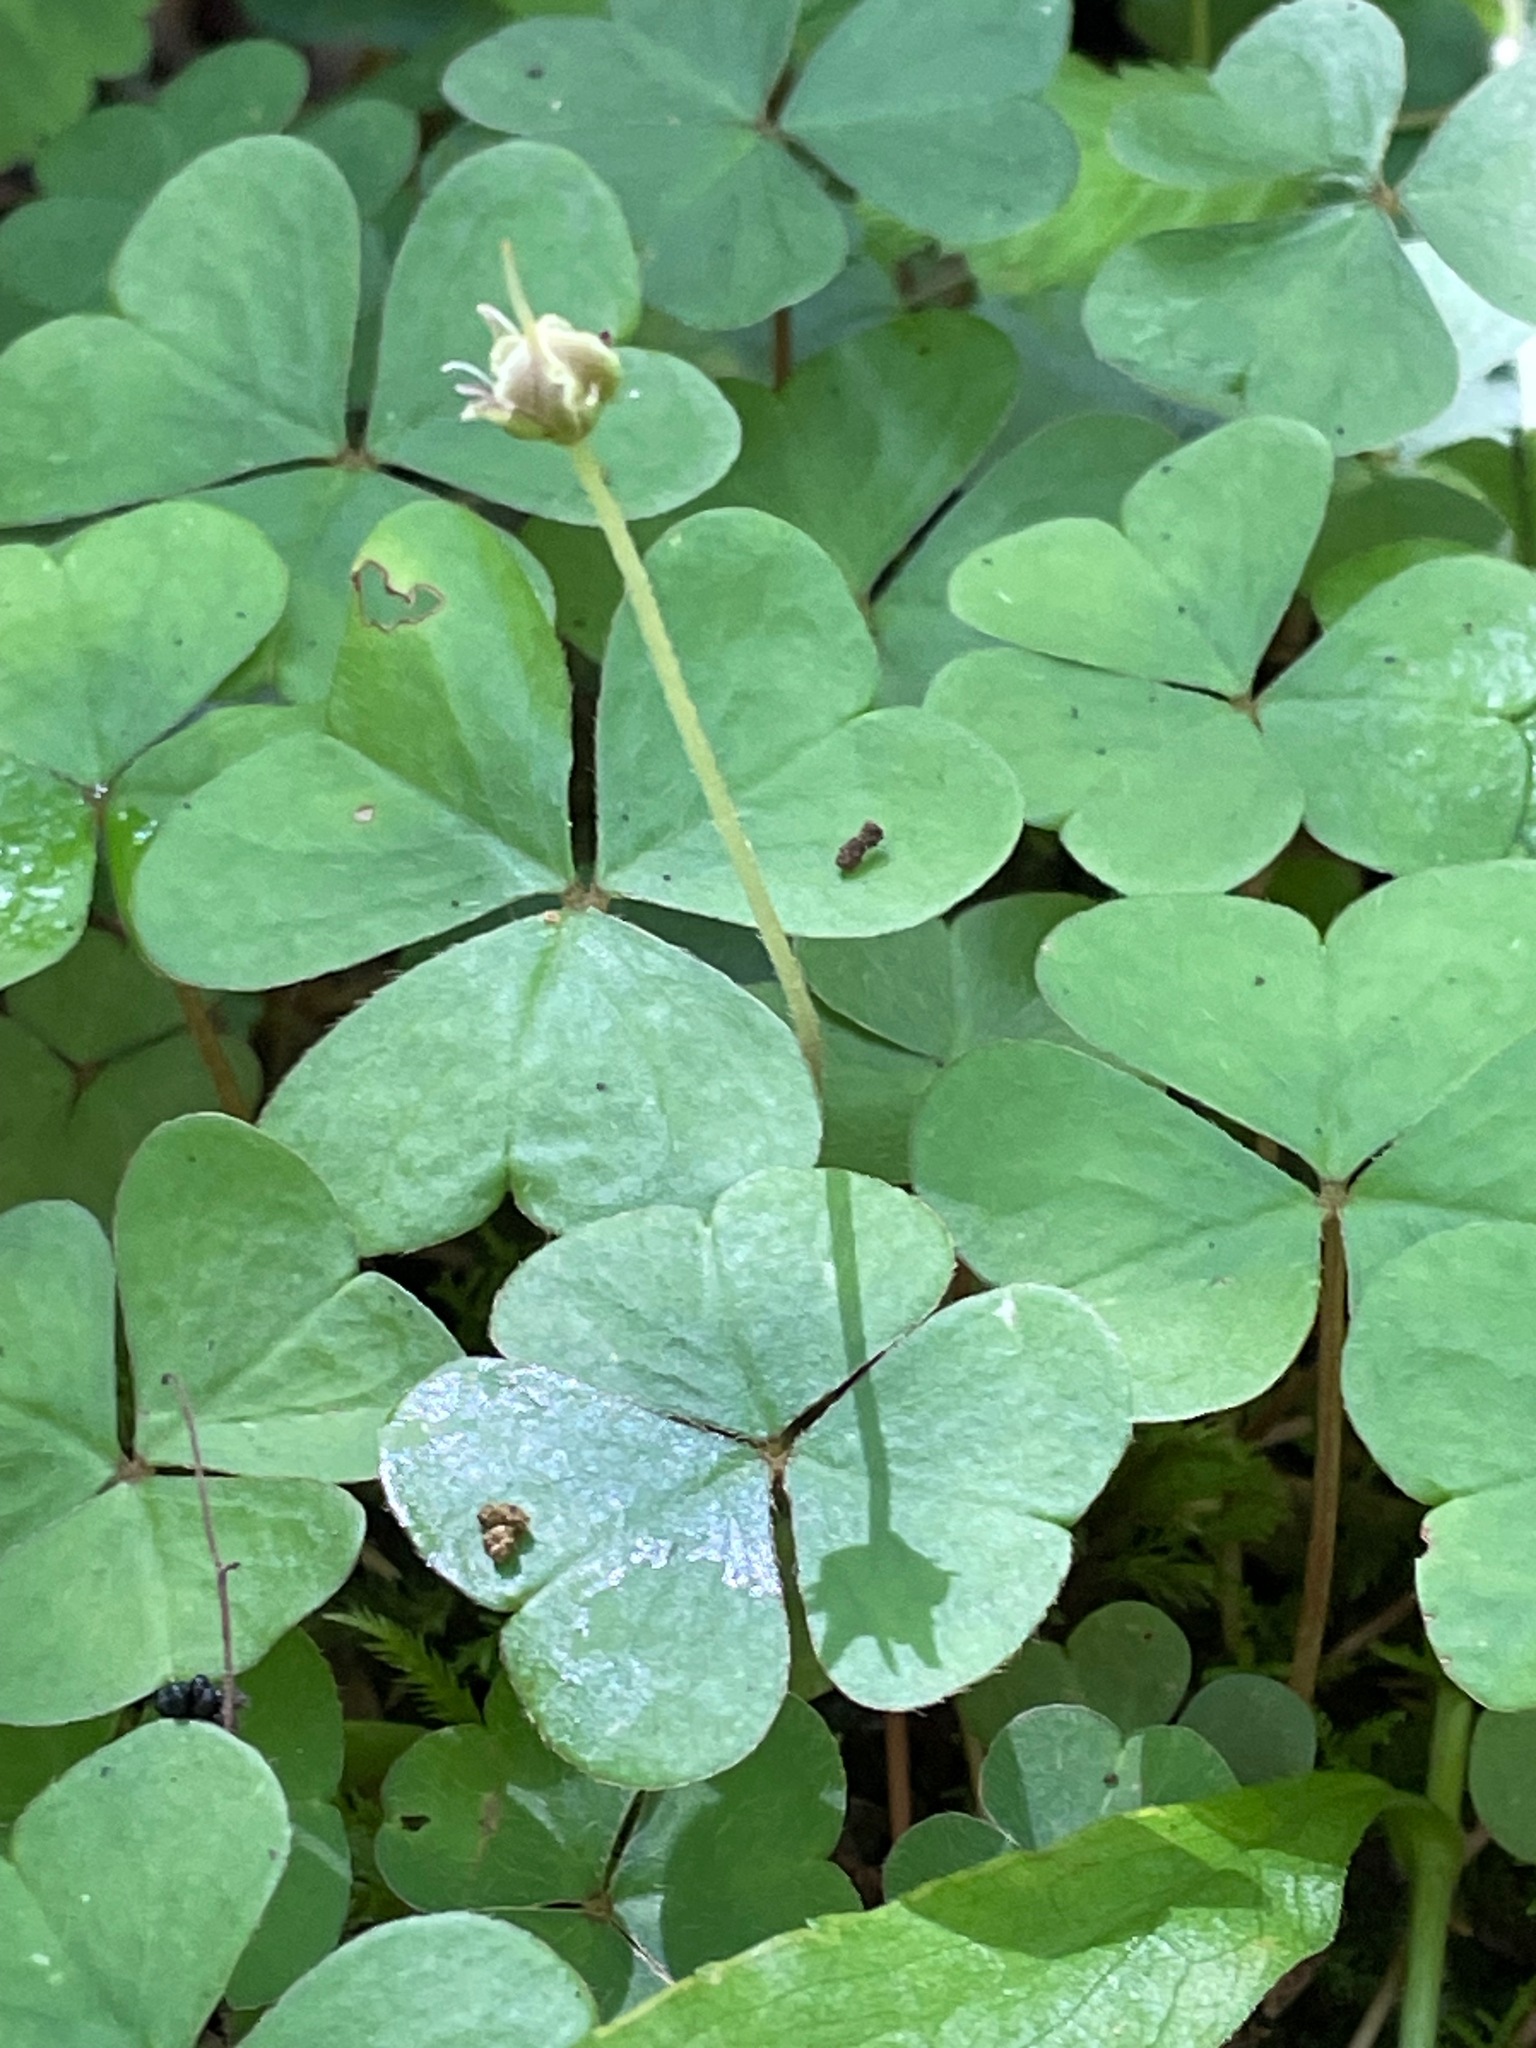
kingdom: Plantae
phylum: Tracheophyta
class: Magnoliopsida
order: Oxalidales
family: Oxalidaceae
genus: Oxalis
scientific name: Oxalis montana
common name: American wood-sorrel
